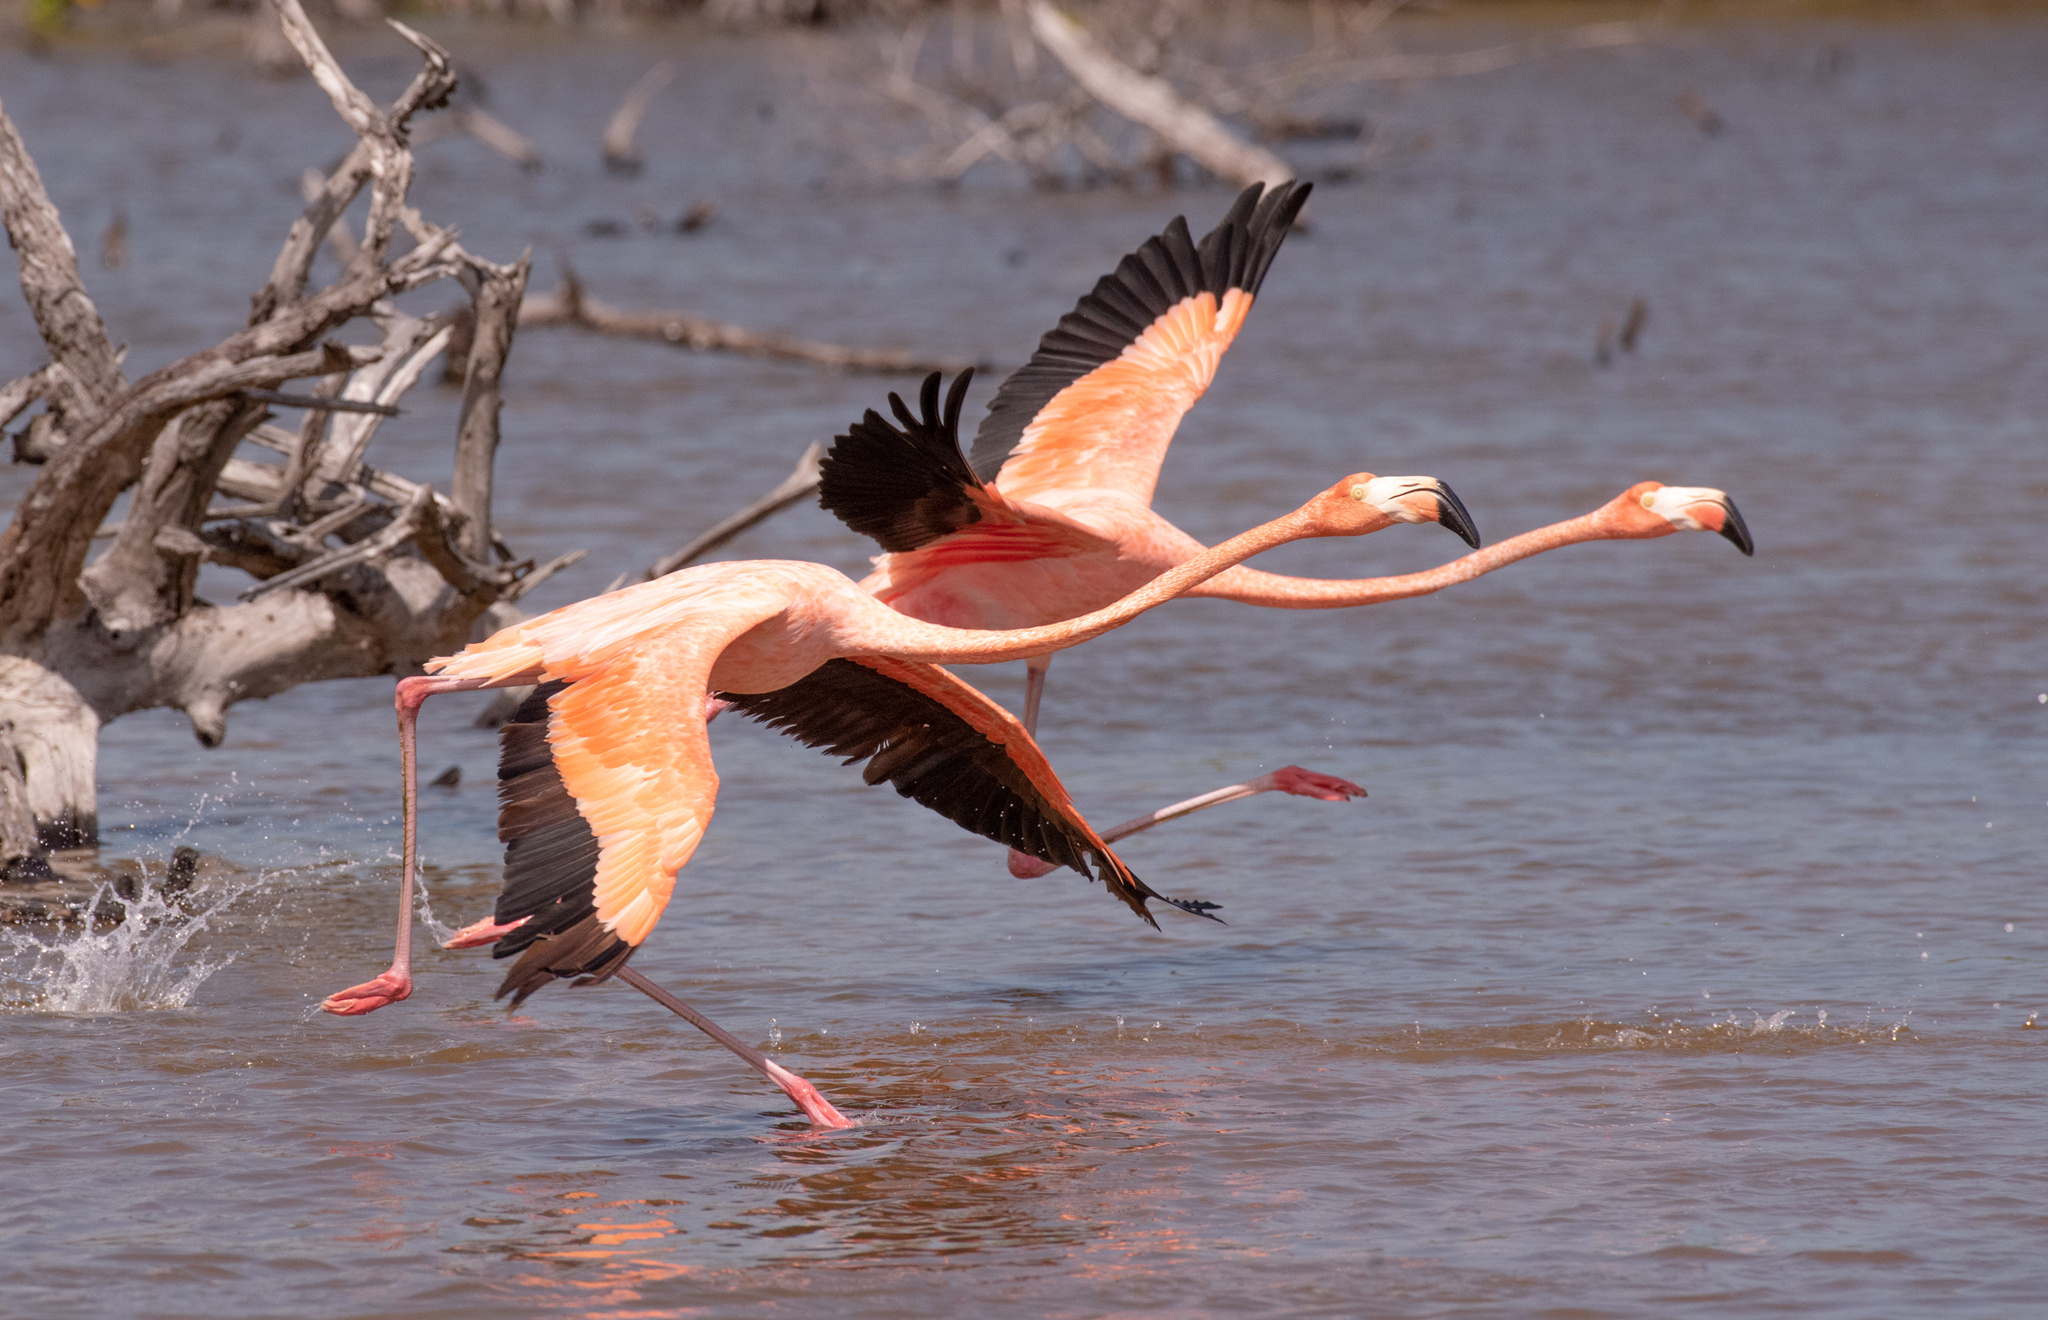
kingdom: Animalia
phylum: Chordata
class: Aves
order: Phoenicopteriformes
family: Phoenicopteridae
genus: Phoenicopterus
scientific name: Phoenicopterus ruber
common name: American flamingo
